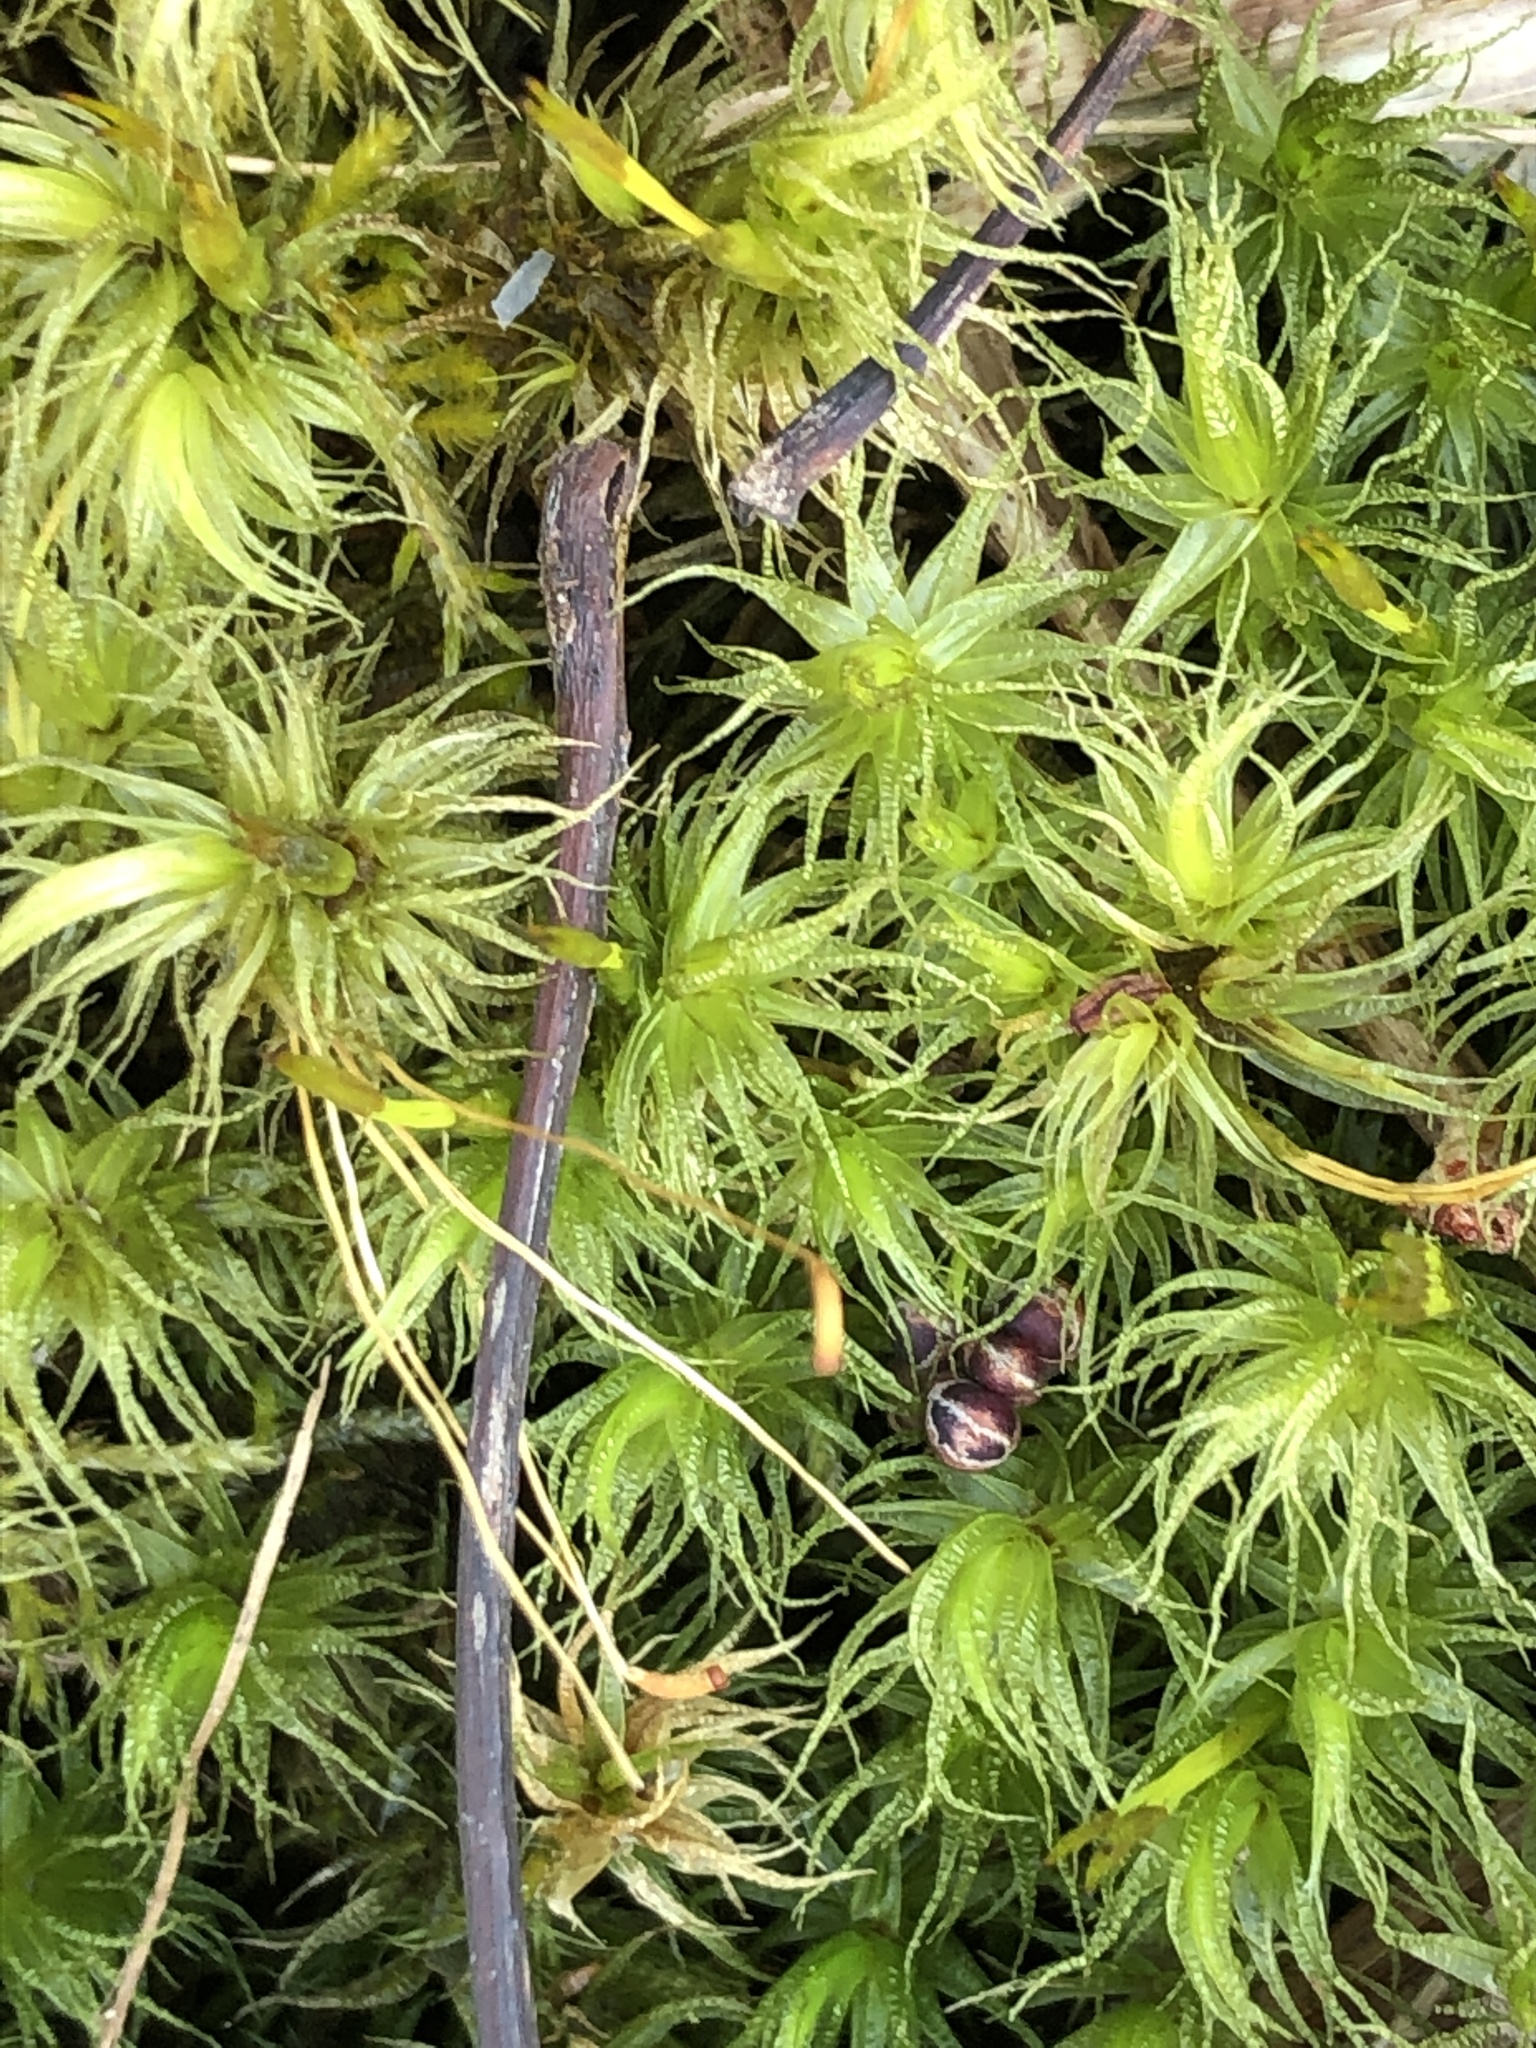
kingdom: Plantae
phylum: Bryophyta
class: Bryopsida
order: Dicranales
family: Dicranaceae
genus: Dicranum
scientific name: Dicranum polysetum
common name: Rugose fork-moss
